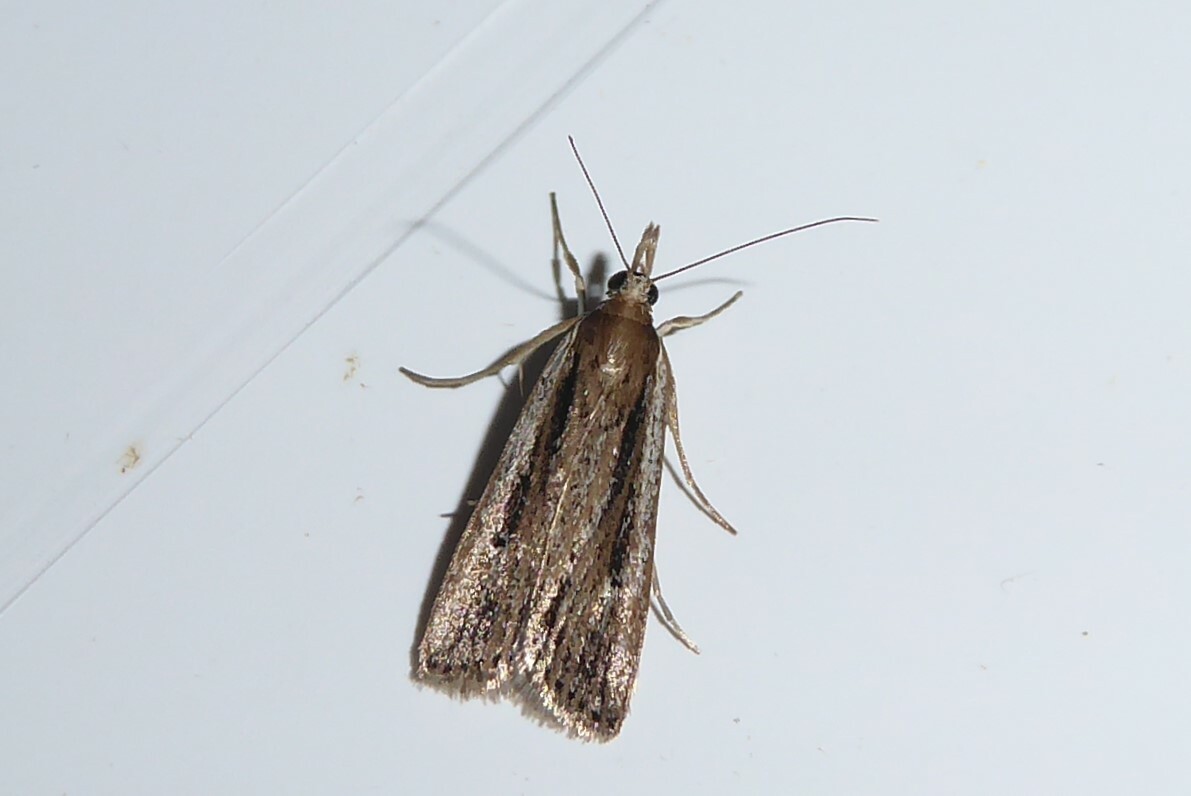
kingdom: Animalia
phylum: Arthropoda
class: Insecta
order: Lepidoptera
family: Crambidae
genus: Eudonia
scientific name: Eudonia sabulosella
